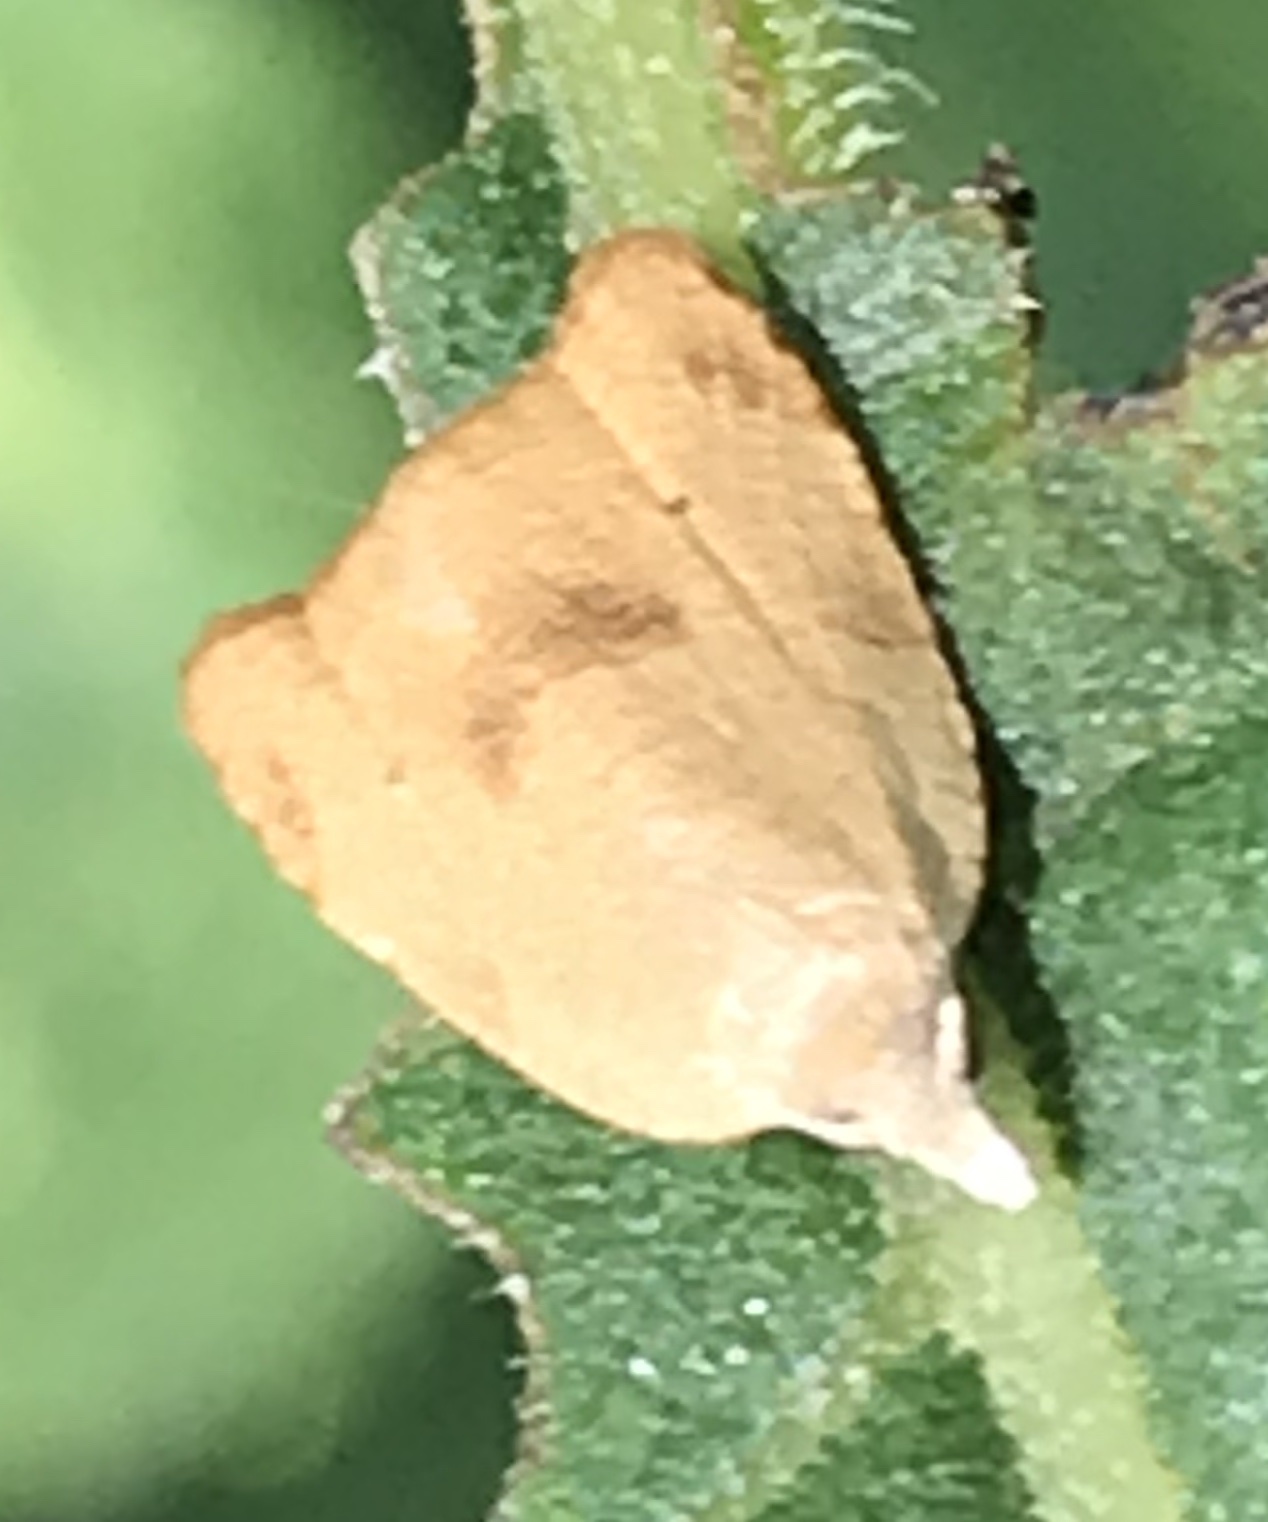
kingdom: Animalia
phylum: Arthropoda
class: Insecta
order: Lepidoptera
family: Tortricidae
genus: Coelostathma
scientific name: Coelostathma discopunctana
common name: Batman moth
